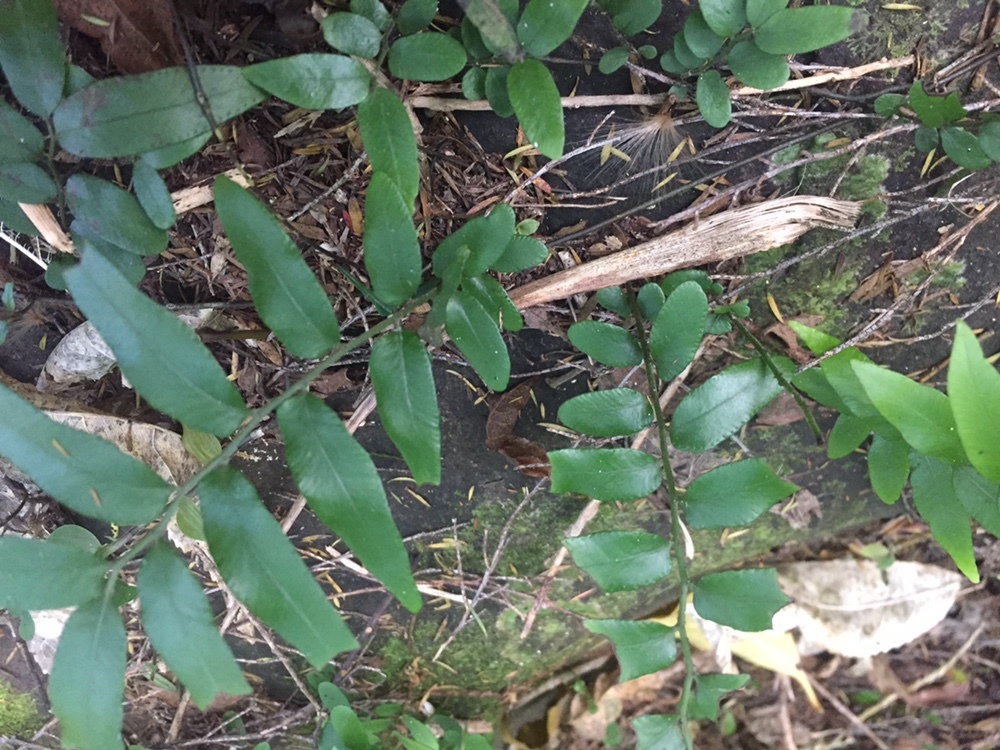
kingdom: Plantae
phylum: Tracheophyta
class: Polypodiopsida
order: Polypodiales
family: Tectariaceae
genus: Arthropteris
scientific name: Arthropteris tenella
